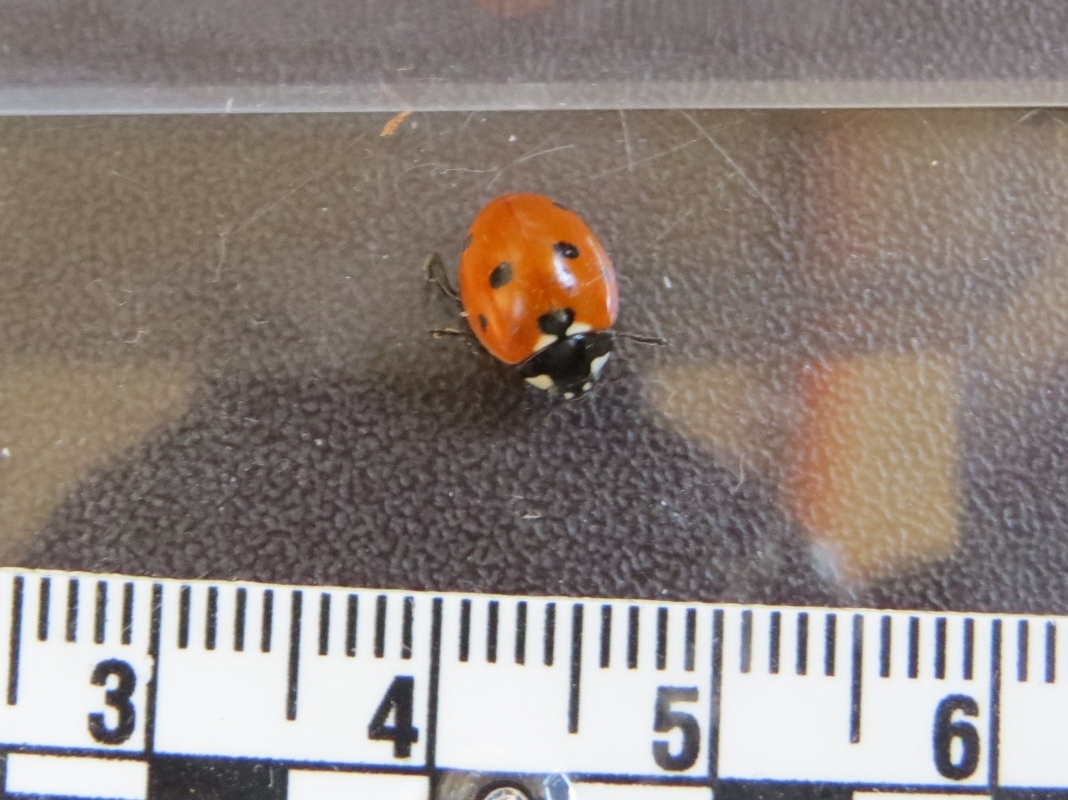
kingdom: Animalia
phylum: Arthropoda
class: Insecta
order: Coleoptera
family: Coccinellidae
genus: Coccinella
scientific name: Coccinella septempunctata
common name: Sevenspotted lady beetle
